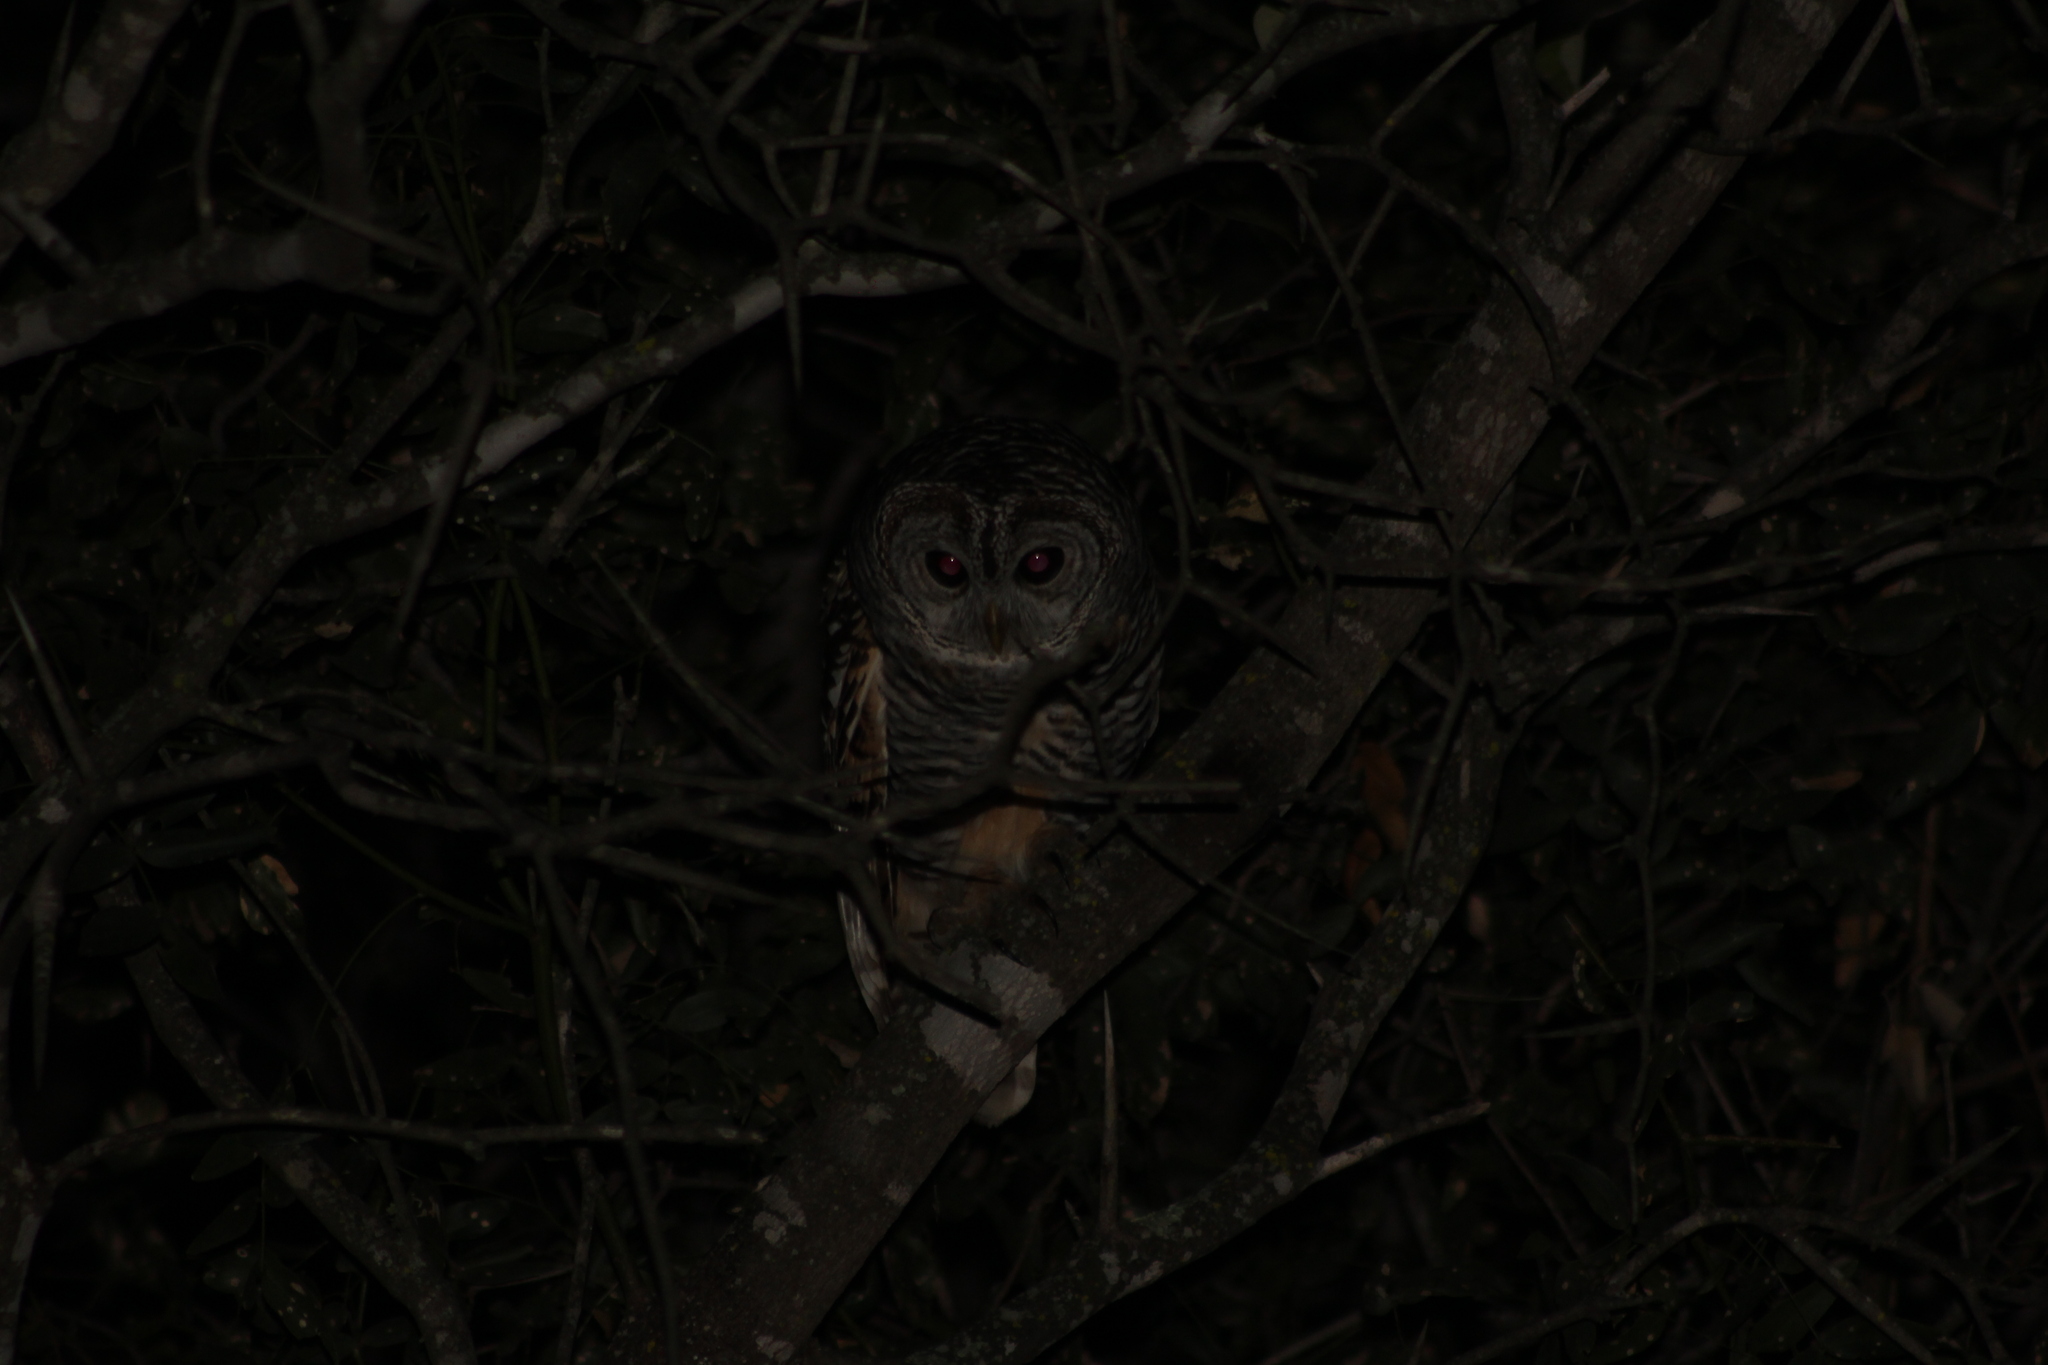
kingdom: Animalia
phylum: Chordata
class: Aves
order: Strigiformes
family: Strigidae
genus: Strix
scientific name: Strix chacoensis
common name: Chaco owl
